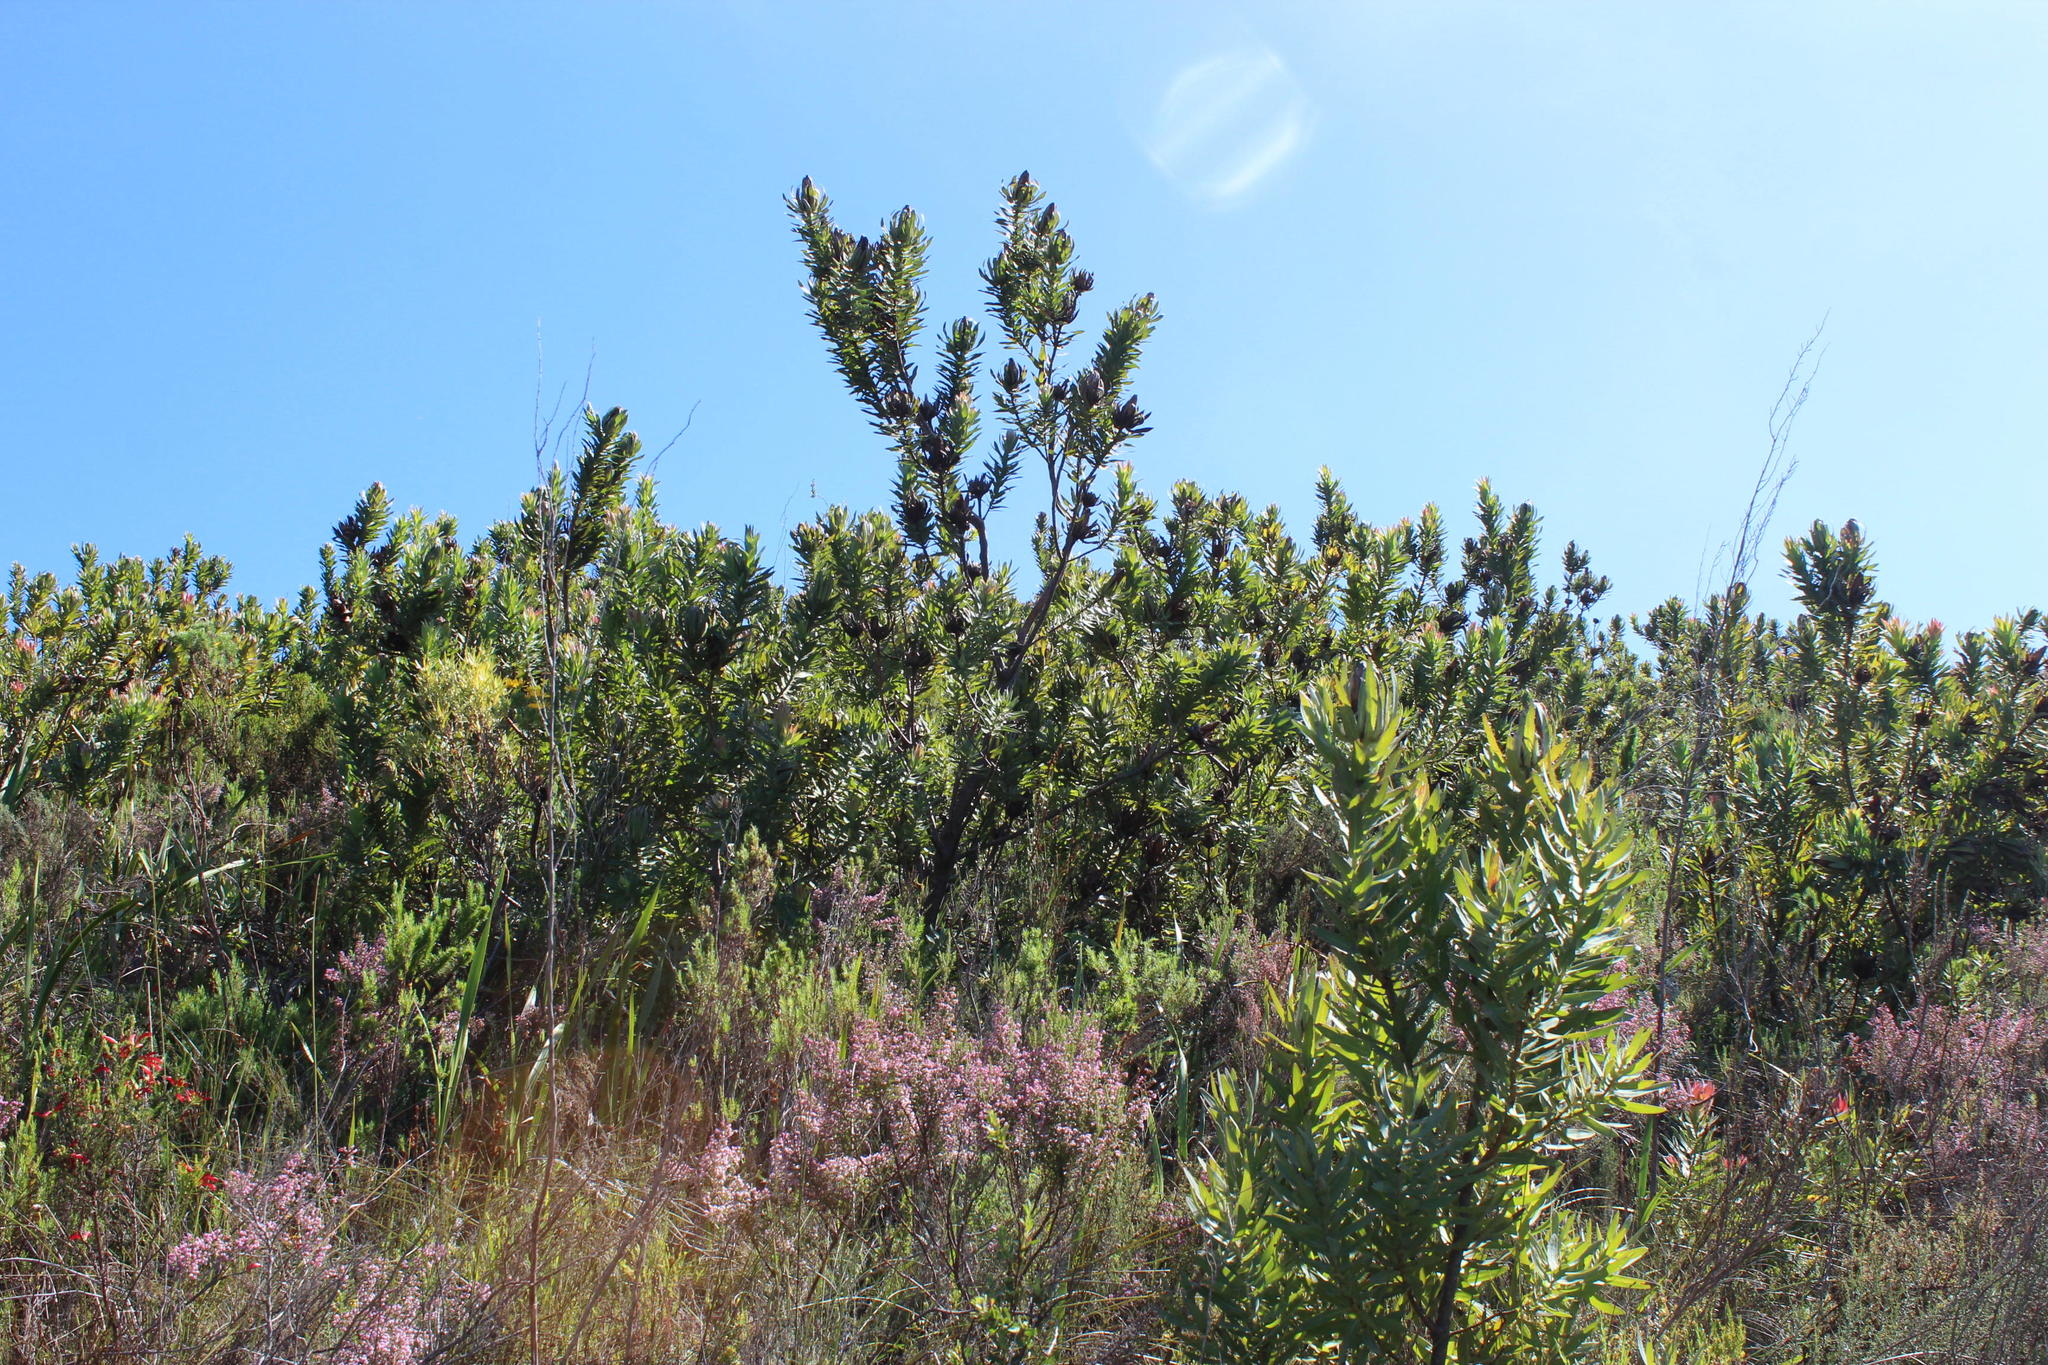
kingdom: Plantae
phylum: Tracheophyta
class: Magnoliopsida
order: Proteales
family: Proteaceae
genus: Protea
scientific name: Protea coronata
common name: Green sugarbush
